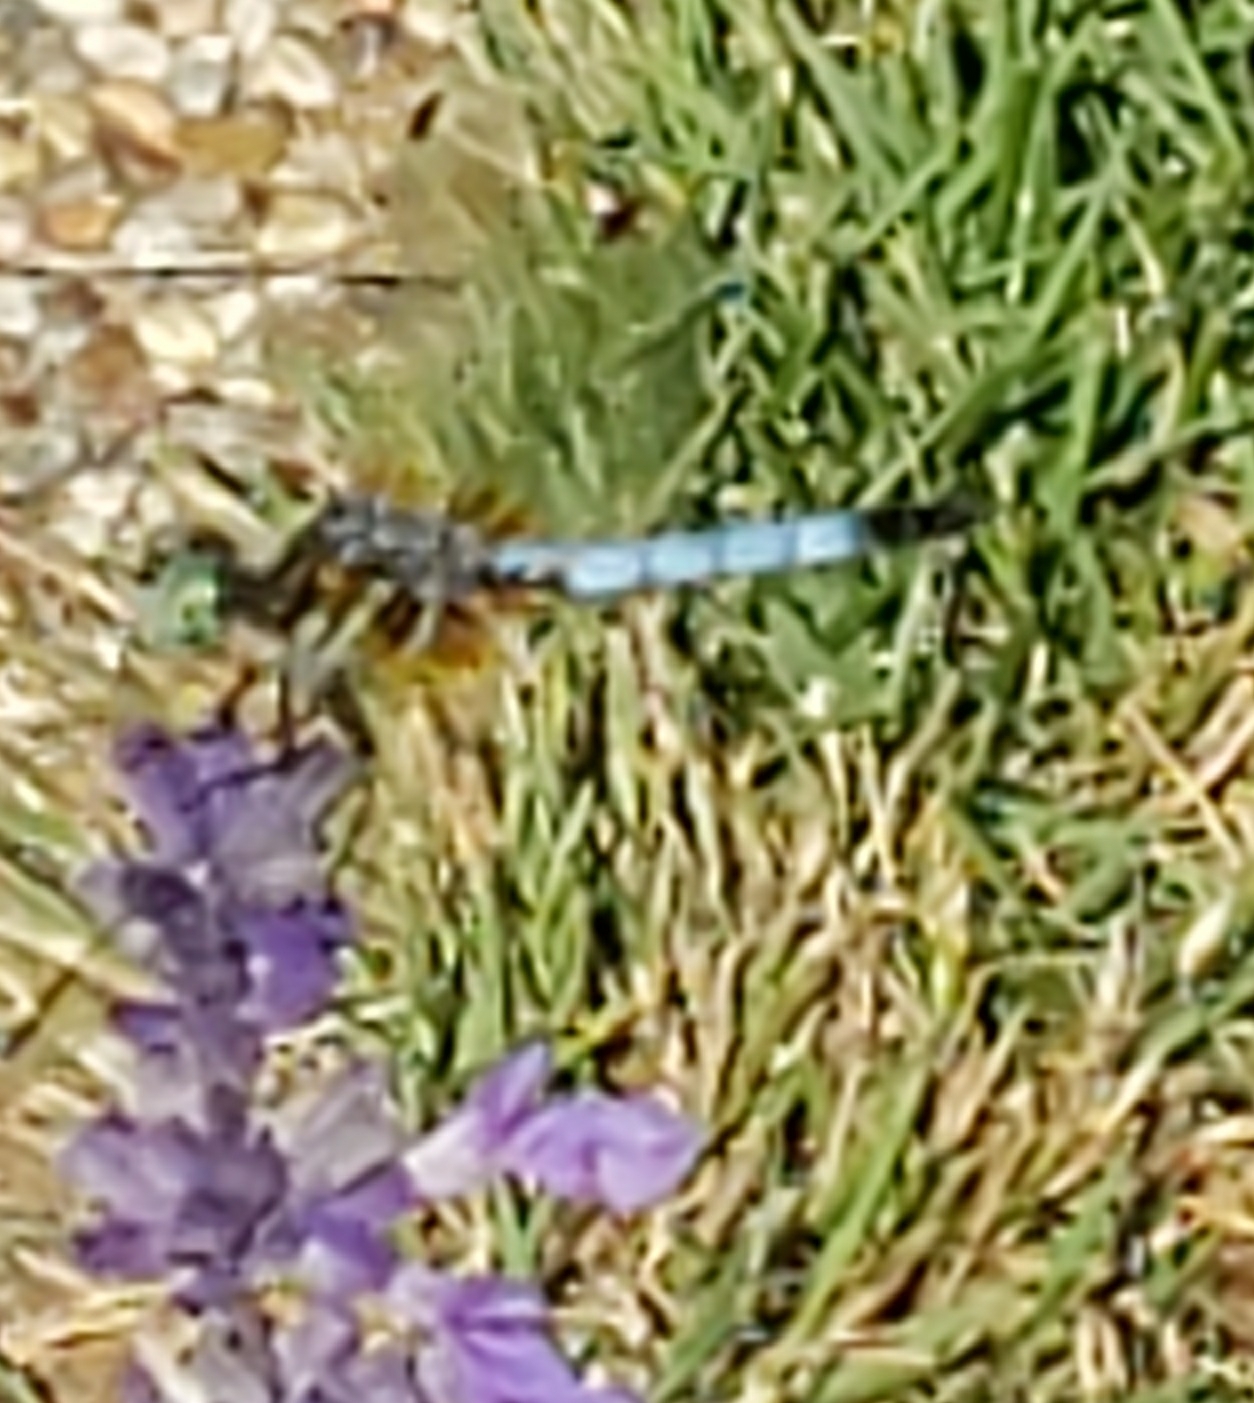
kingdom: Animalia
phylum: Arthropoda
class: Insecta
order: Odonata
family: Libellulidae
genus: Pachydiplax
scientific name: Pachydiplax longipennis
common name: Blue dasher
